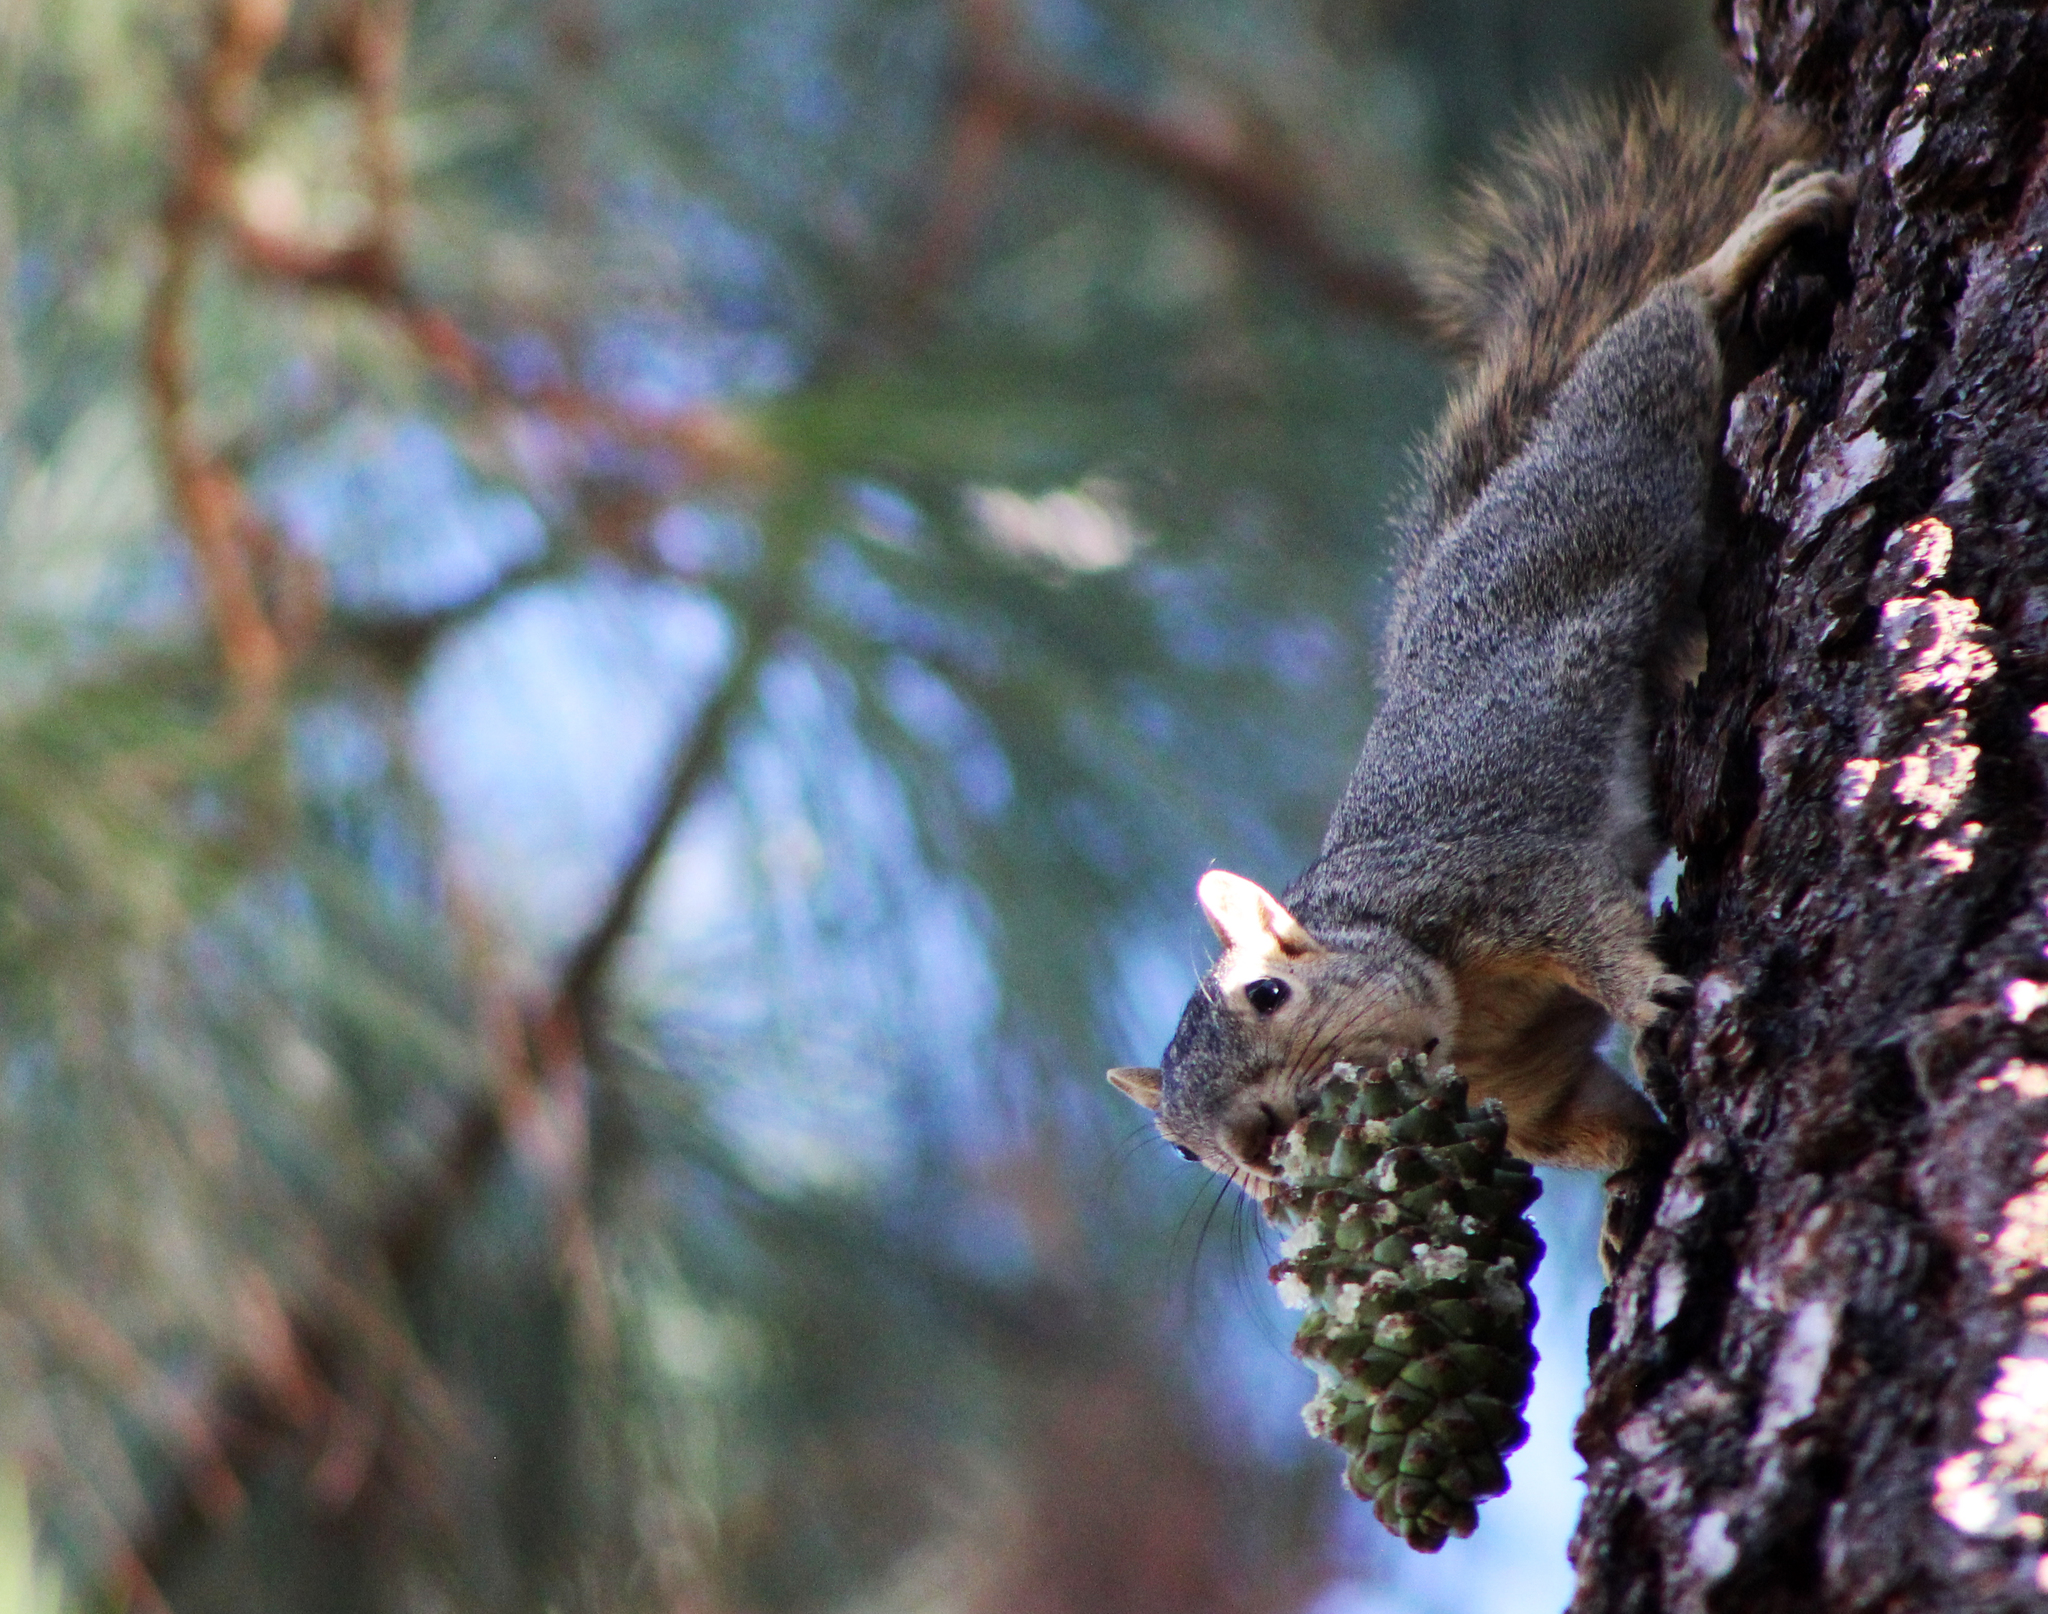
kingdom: Animalia
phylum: Chordata
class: Mammalia
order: Rodentia
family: Sciuridae
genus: Sciurus
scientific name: Sciurus niger
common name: Fox squirrel
